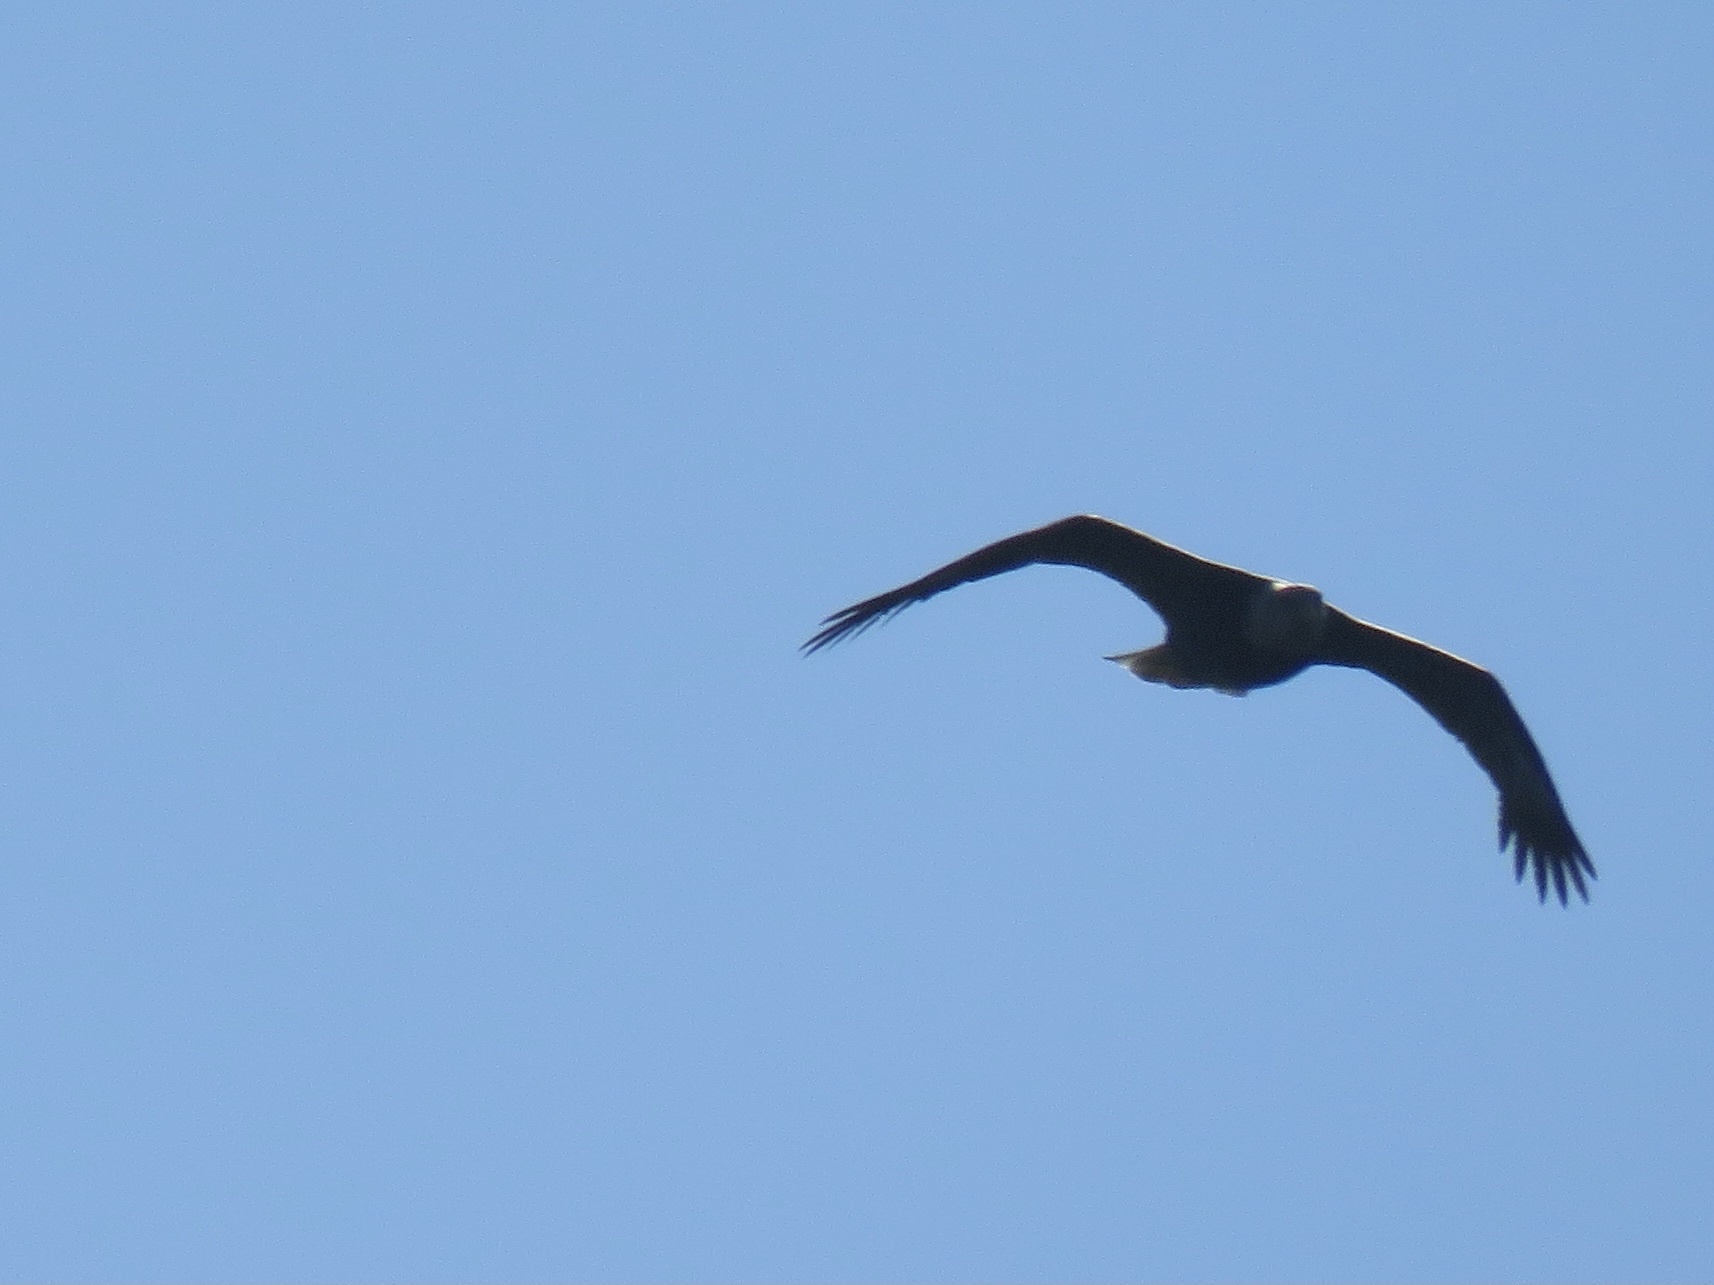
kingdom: Animalia
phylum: Chordata
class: Aves
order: Accipitriformes
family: Accipitridae
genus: Haliaeetus
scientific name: Haliaeetus leucocephalus
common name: Bald eagle
